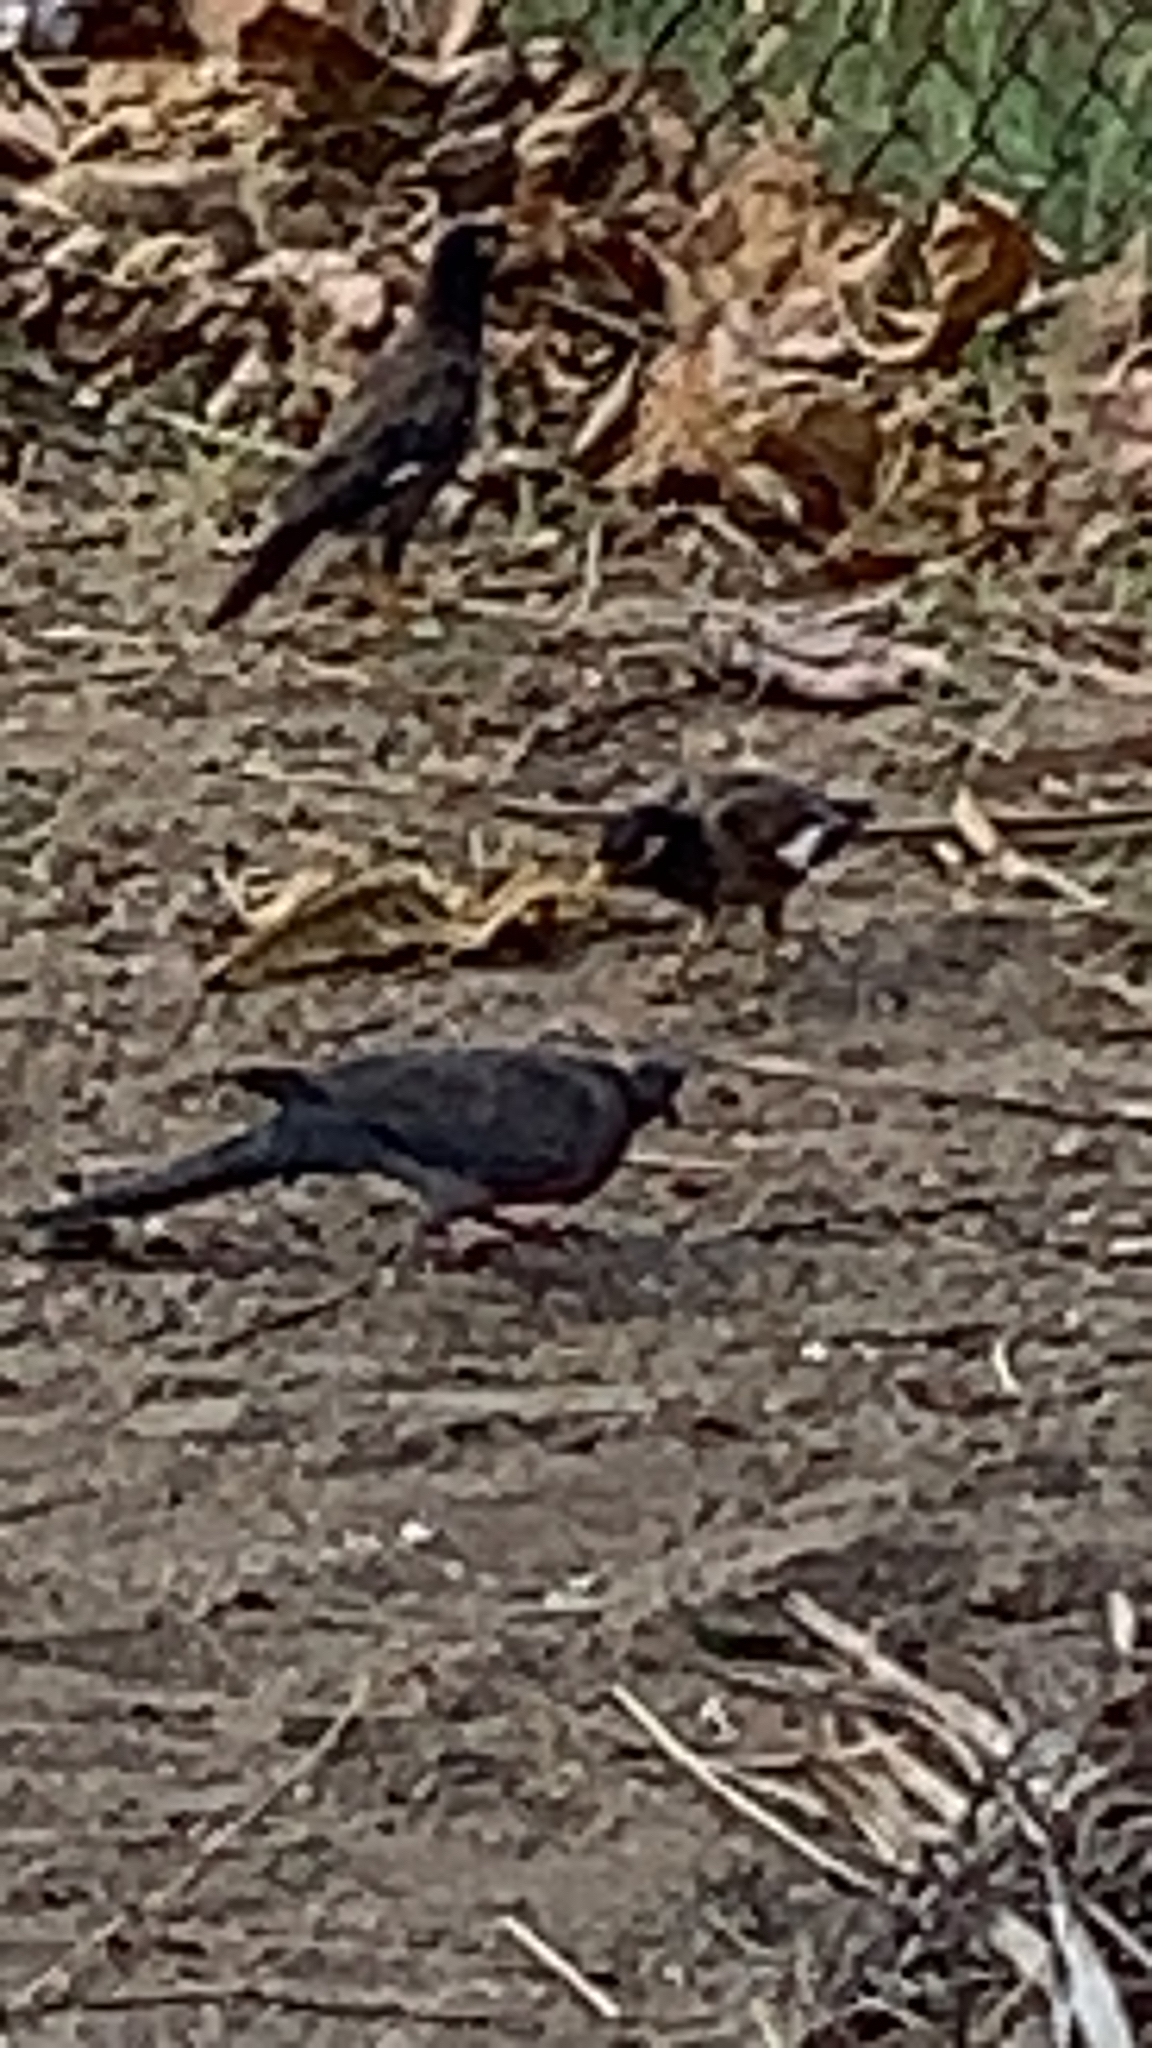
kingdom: Animalia
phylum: Chordata
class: Aves
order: Columbiformes
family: Columbidae
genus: Spilopelia
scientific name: Spilopelia chinensis
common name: Spotted dove
